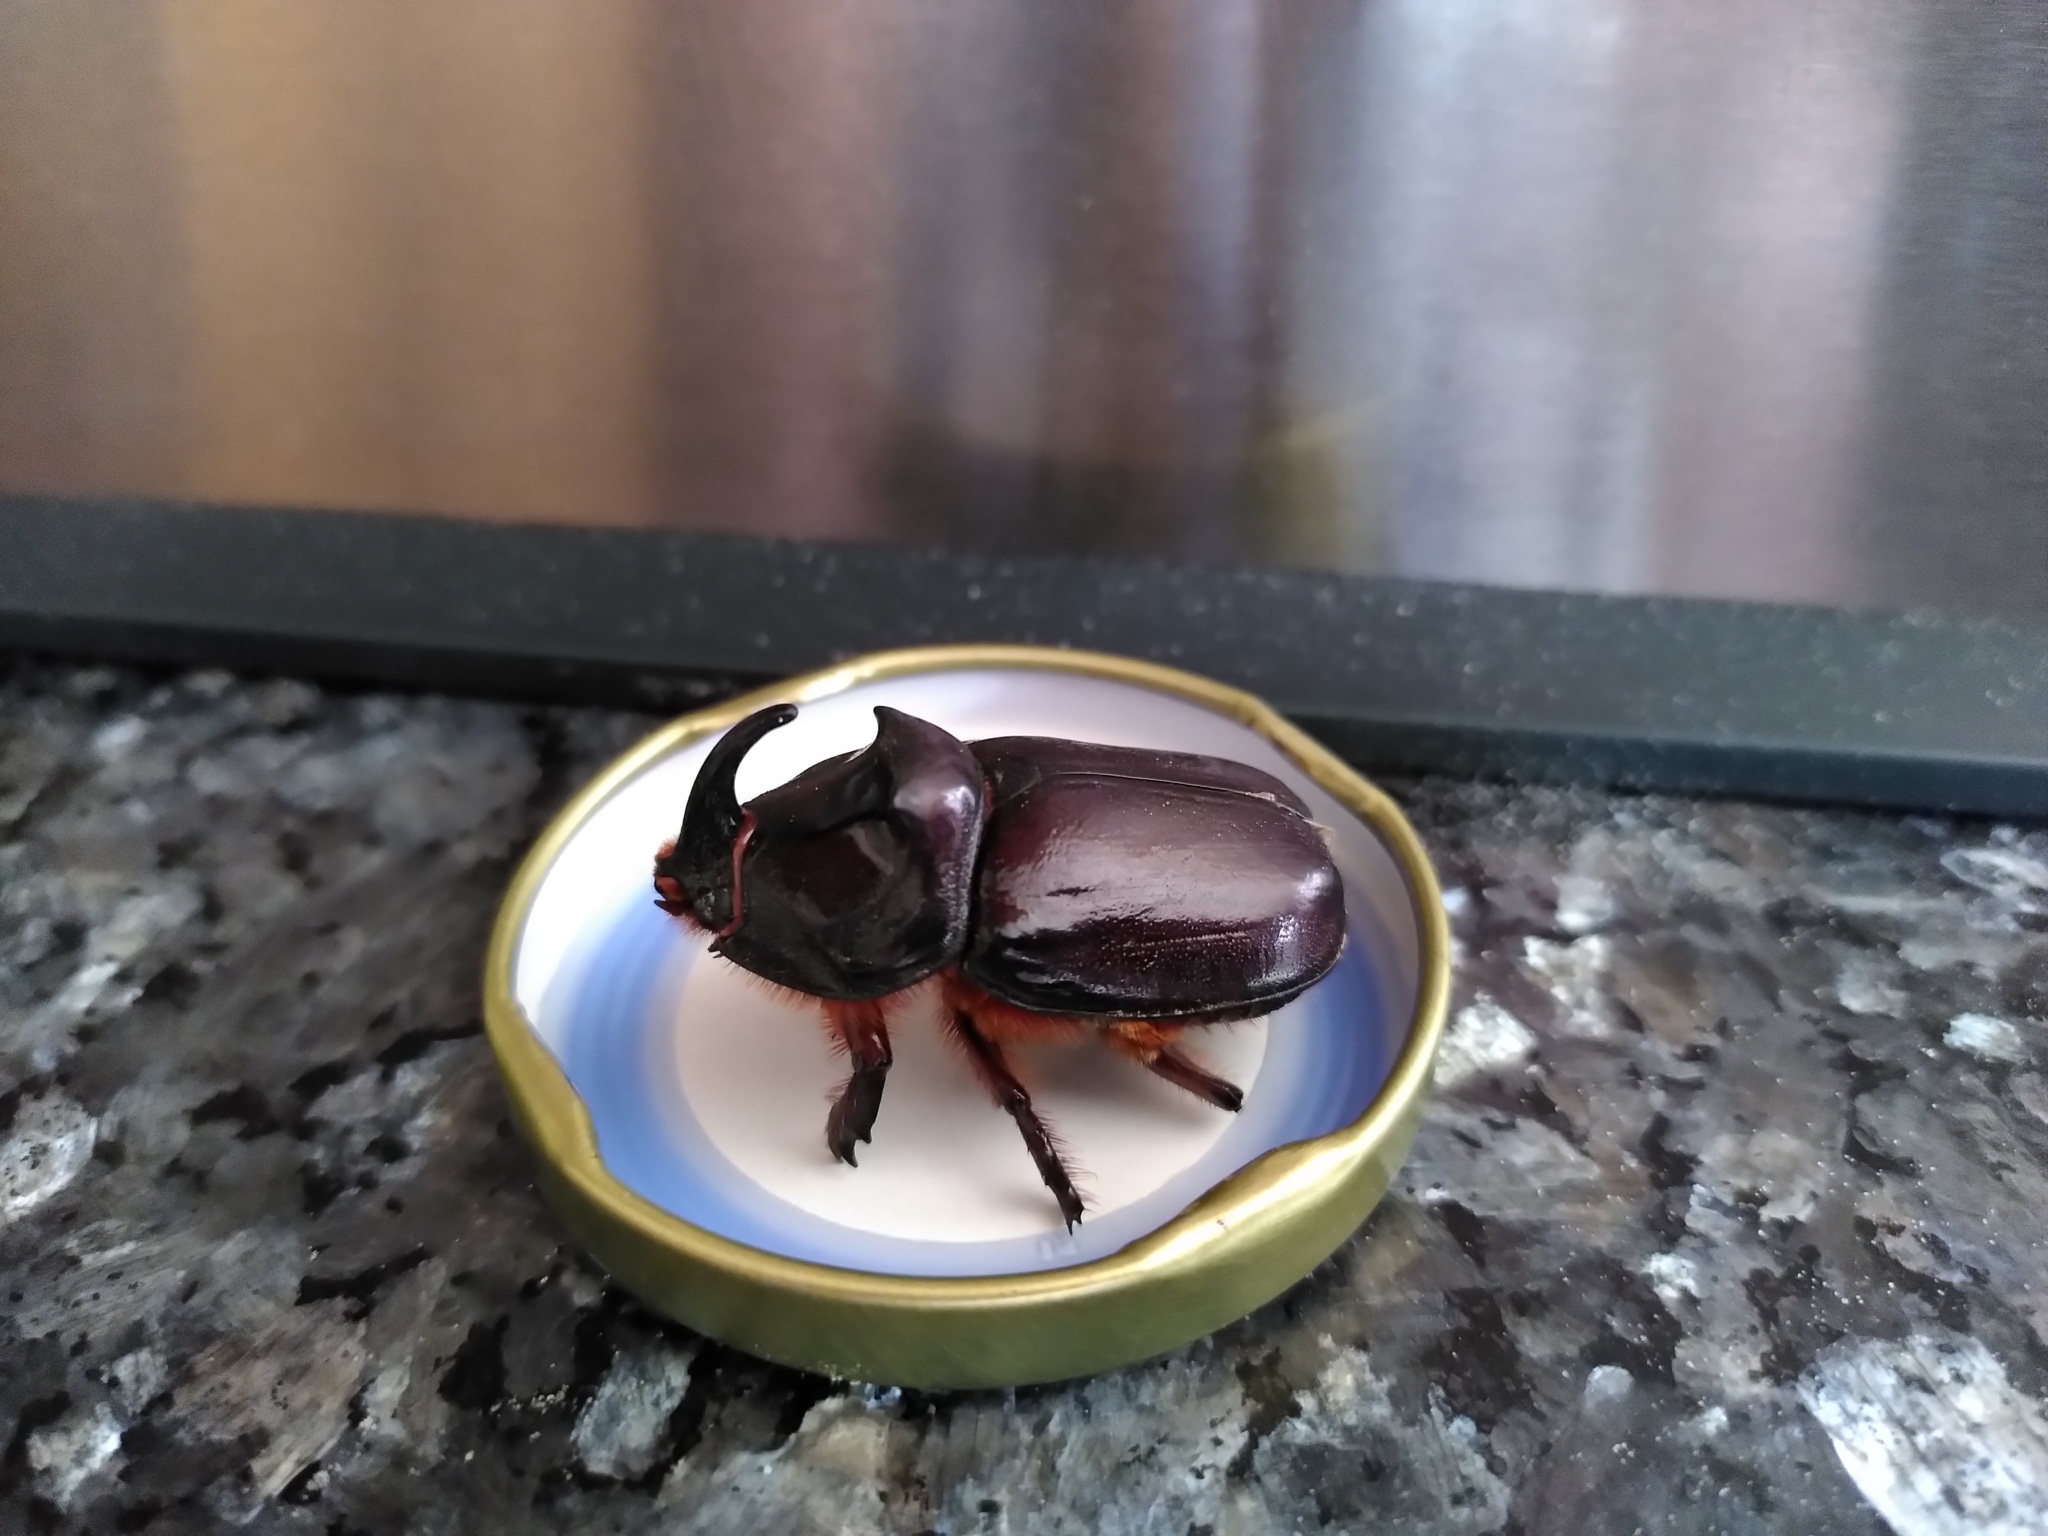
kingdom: Animalia
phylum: Arthropoda
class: Insecta
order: Coleoptera
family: Scarabaeidae
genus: Oryctes
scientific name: Oryctes nasicornis
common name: European rhinoceros beetle
